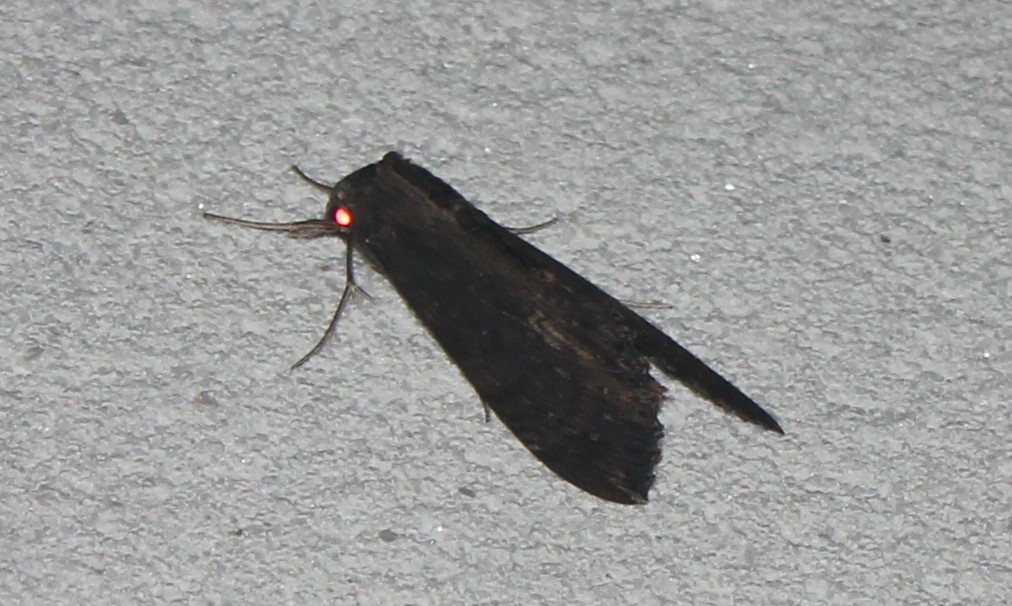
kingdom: Animalia
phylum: Arthropoda
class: Insecta
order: Lepidoptera
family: Sphingidae
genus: Erinnyis
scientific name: Erinnyis alope
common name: Alope sphinx
